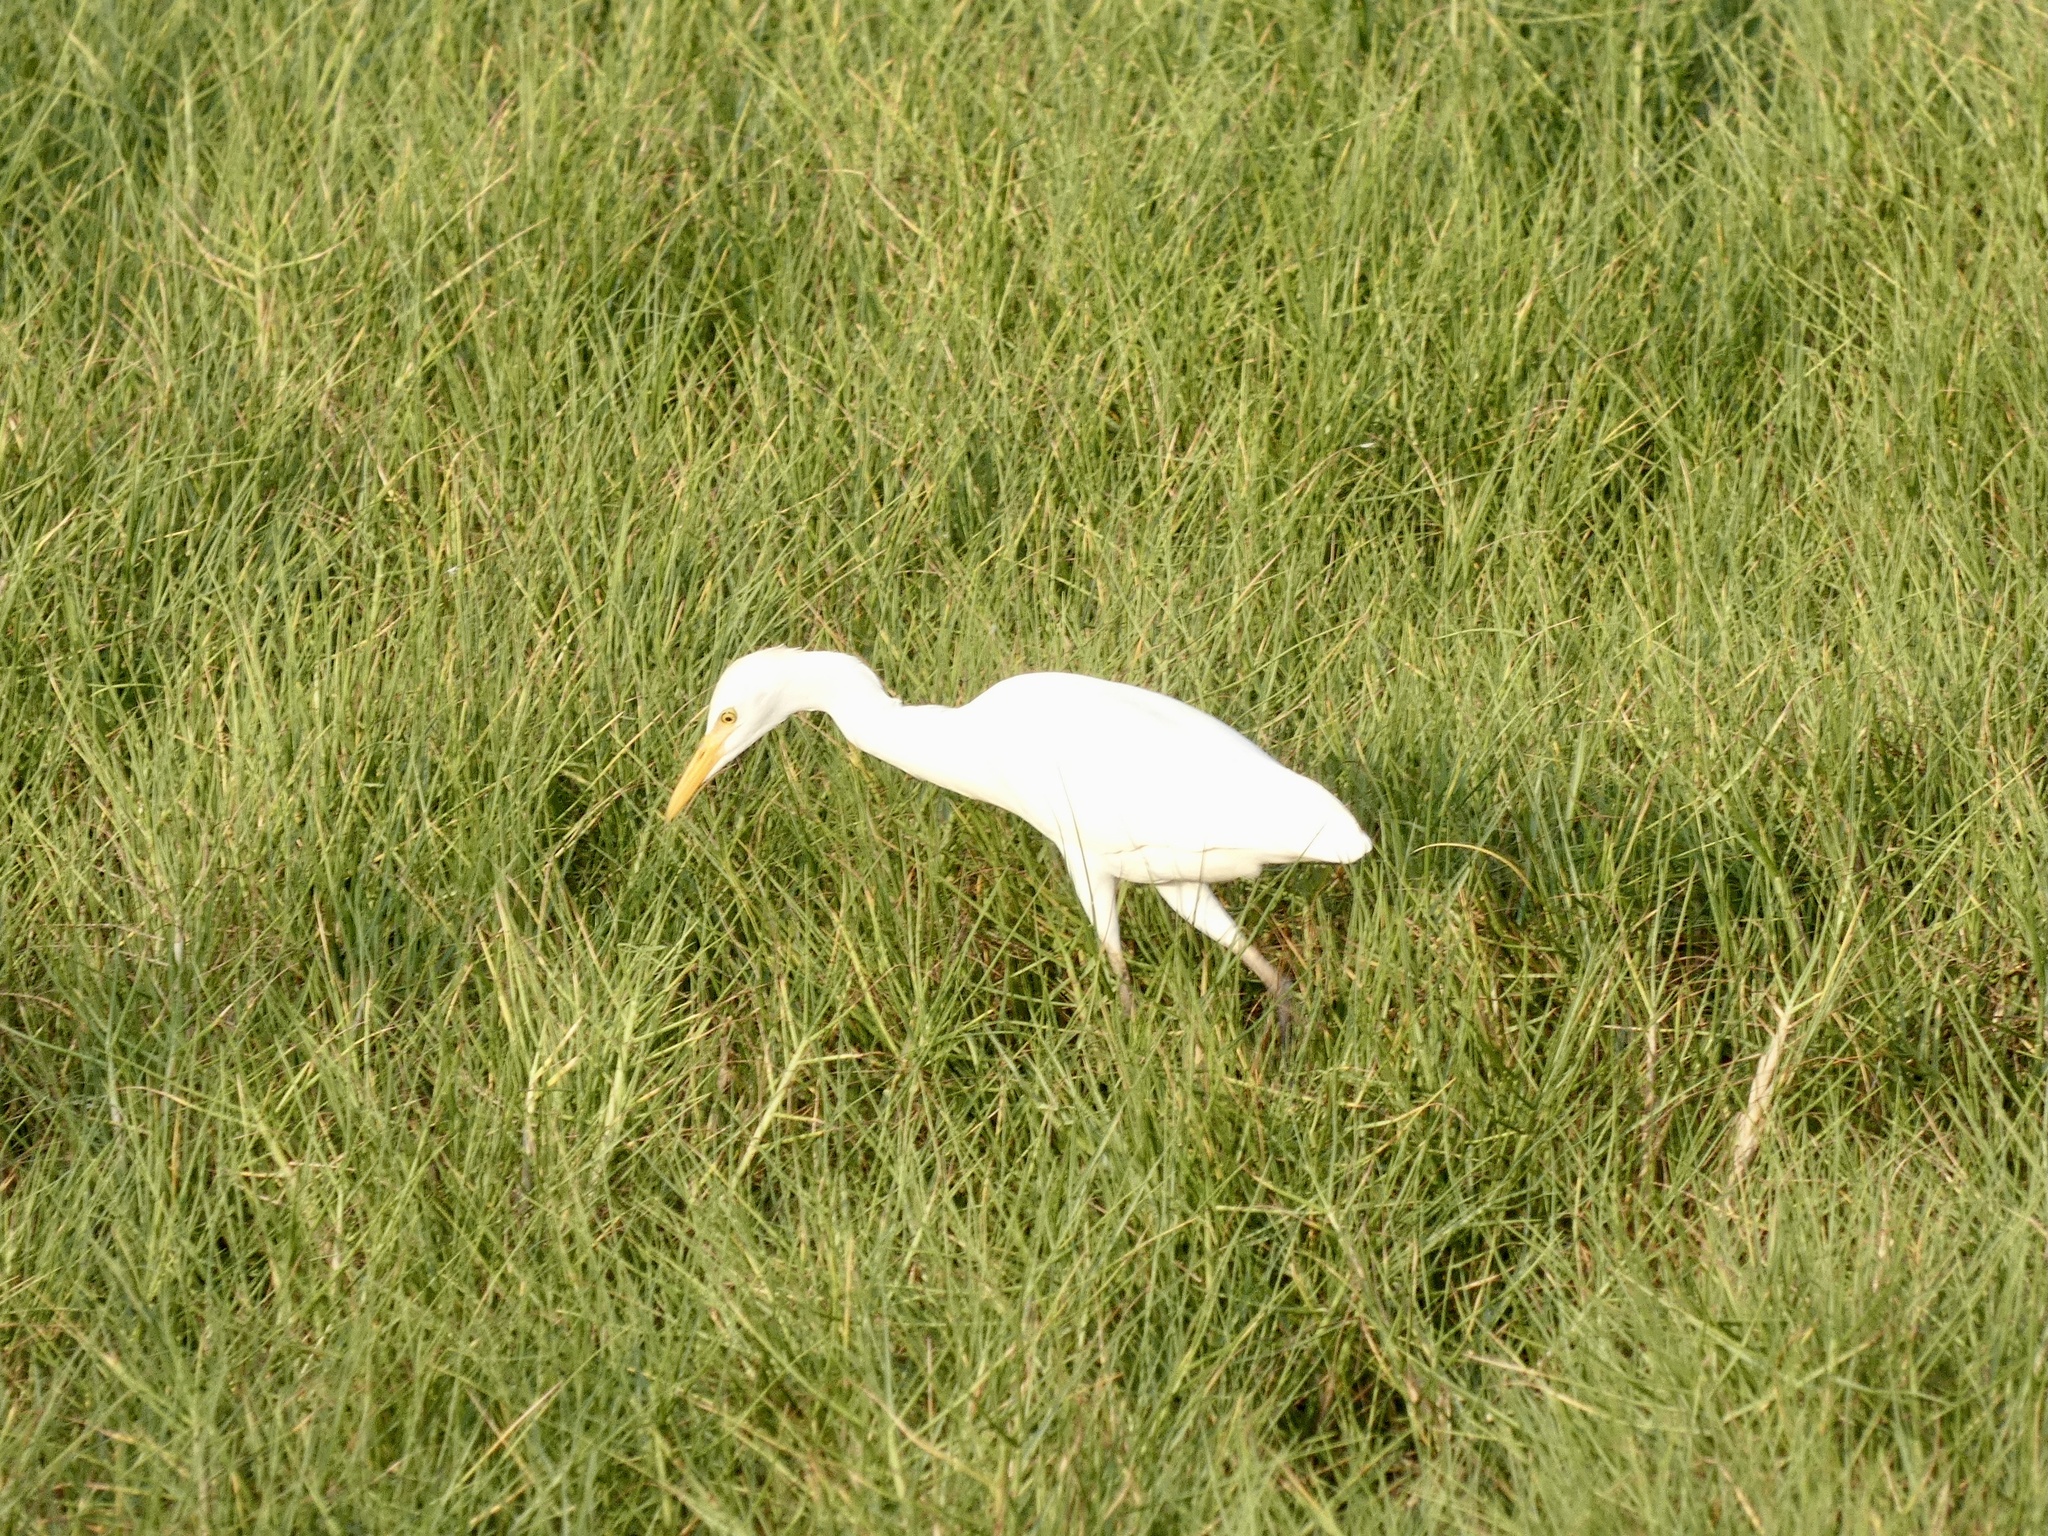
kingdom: Animalia
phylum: Chordata
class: Aves
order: Pelecaniformes
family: Ardeidae
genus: Bubulcus
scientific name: Bubulcus ibis
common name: Cattle egret
